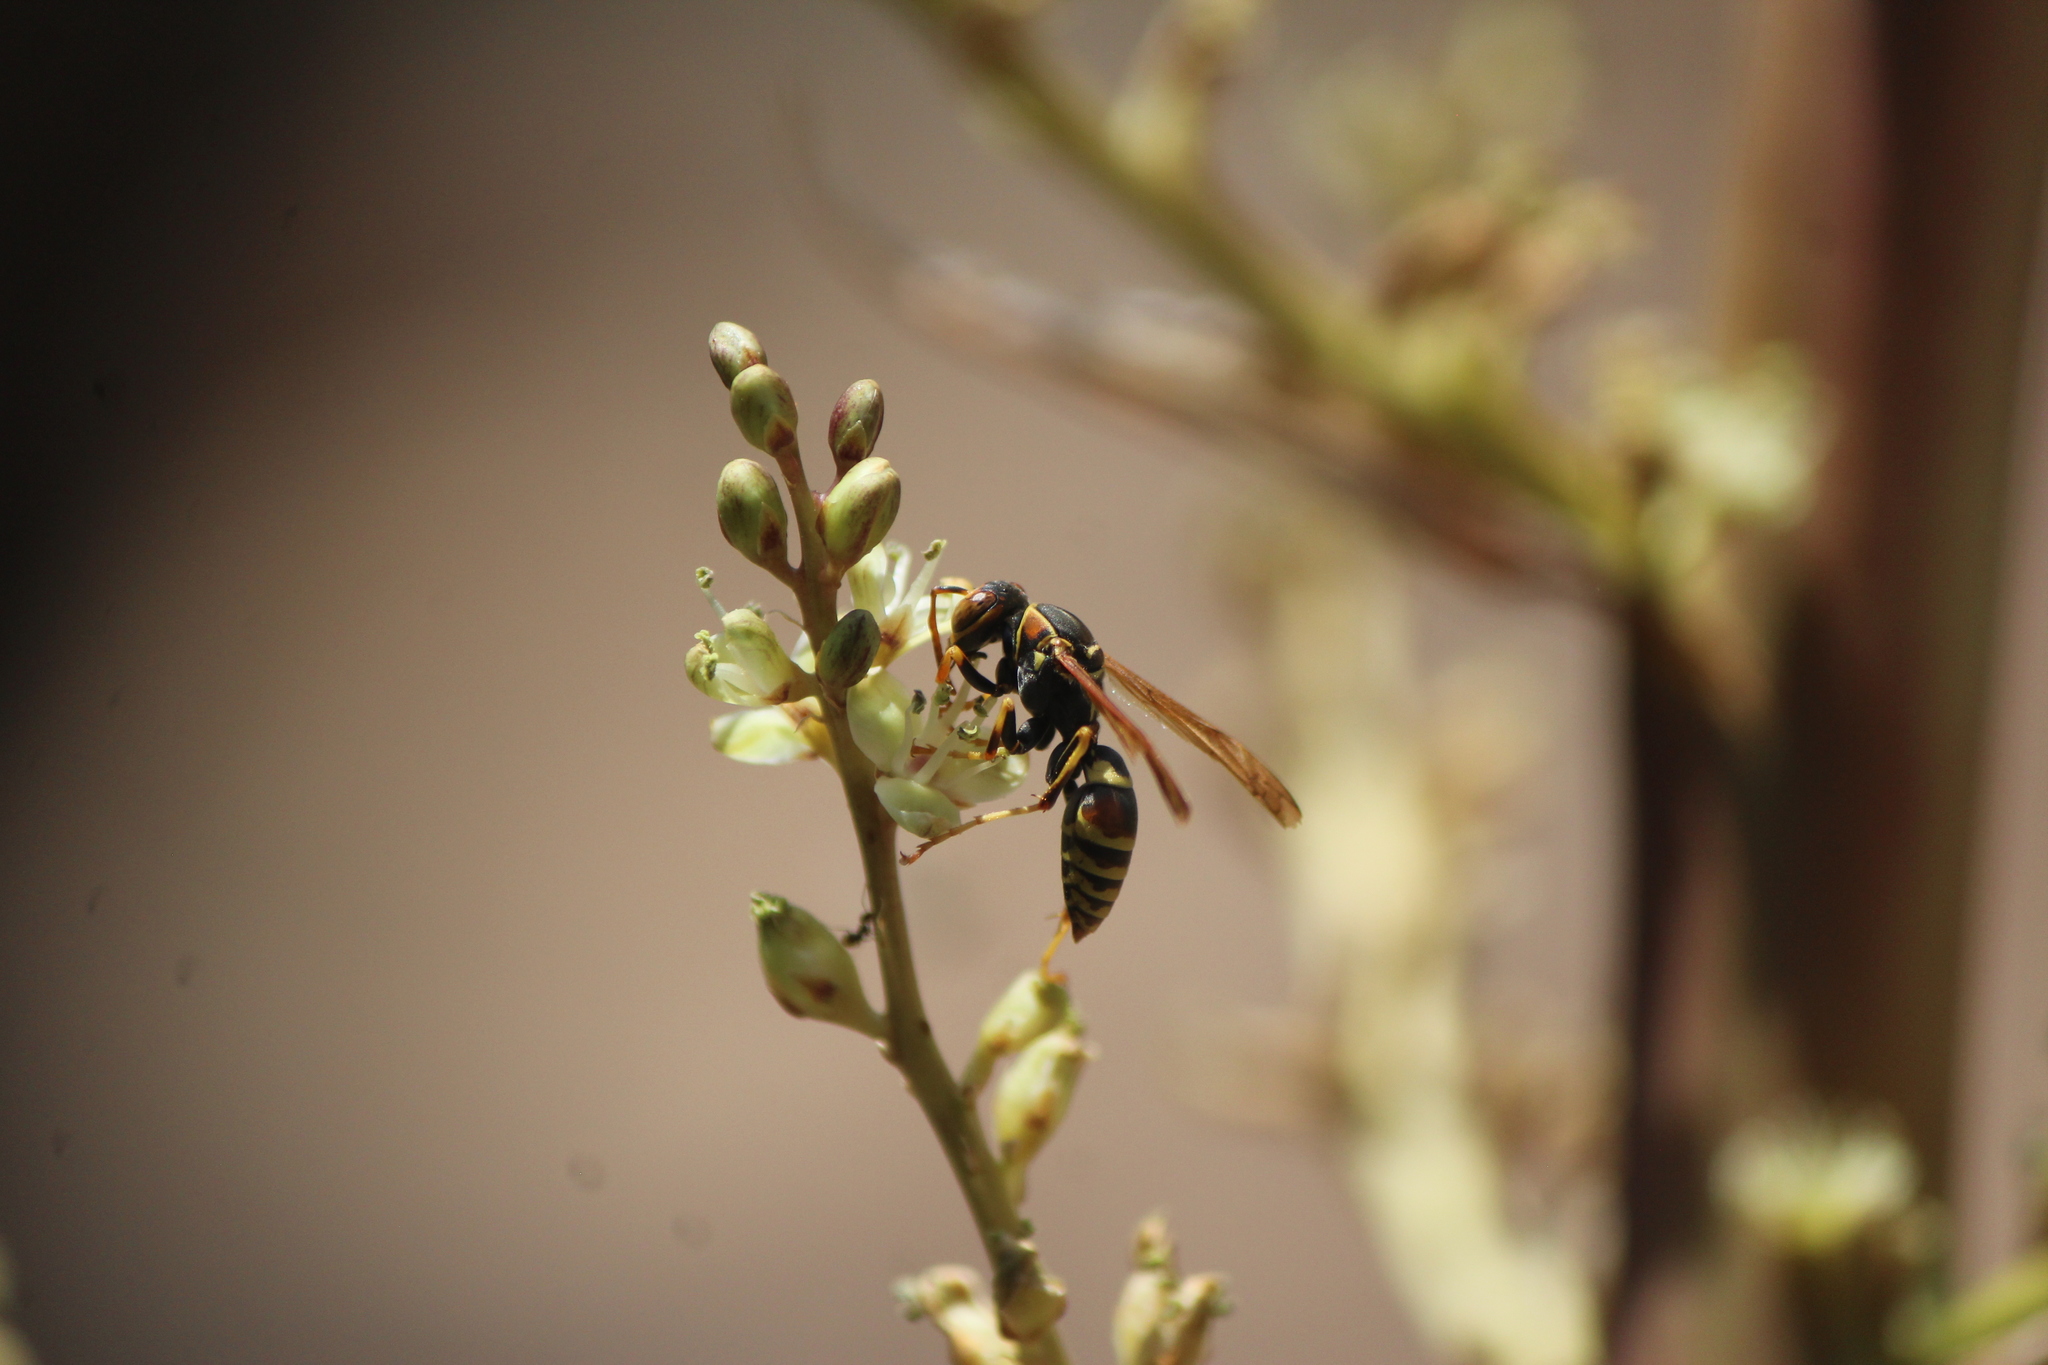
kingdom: Animalia
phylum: Arthropoda
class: Insecta
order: Hymenoptera
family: Eumenidae
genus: Polistes
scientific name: Polistes dorsalis
